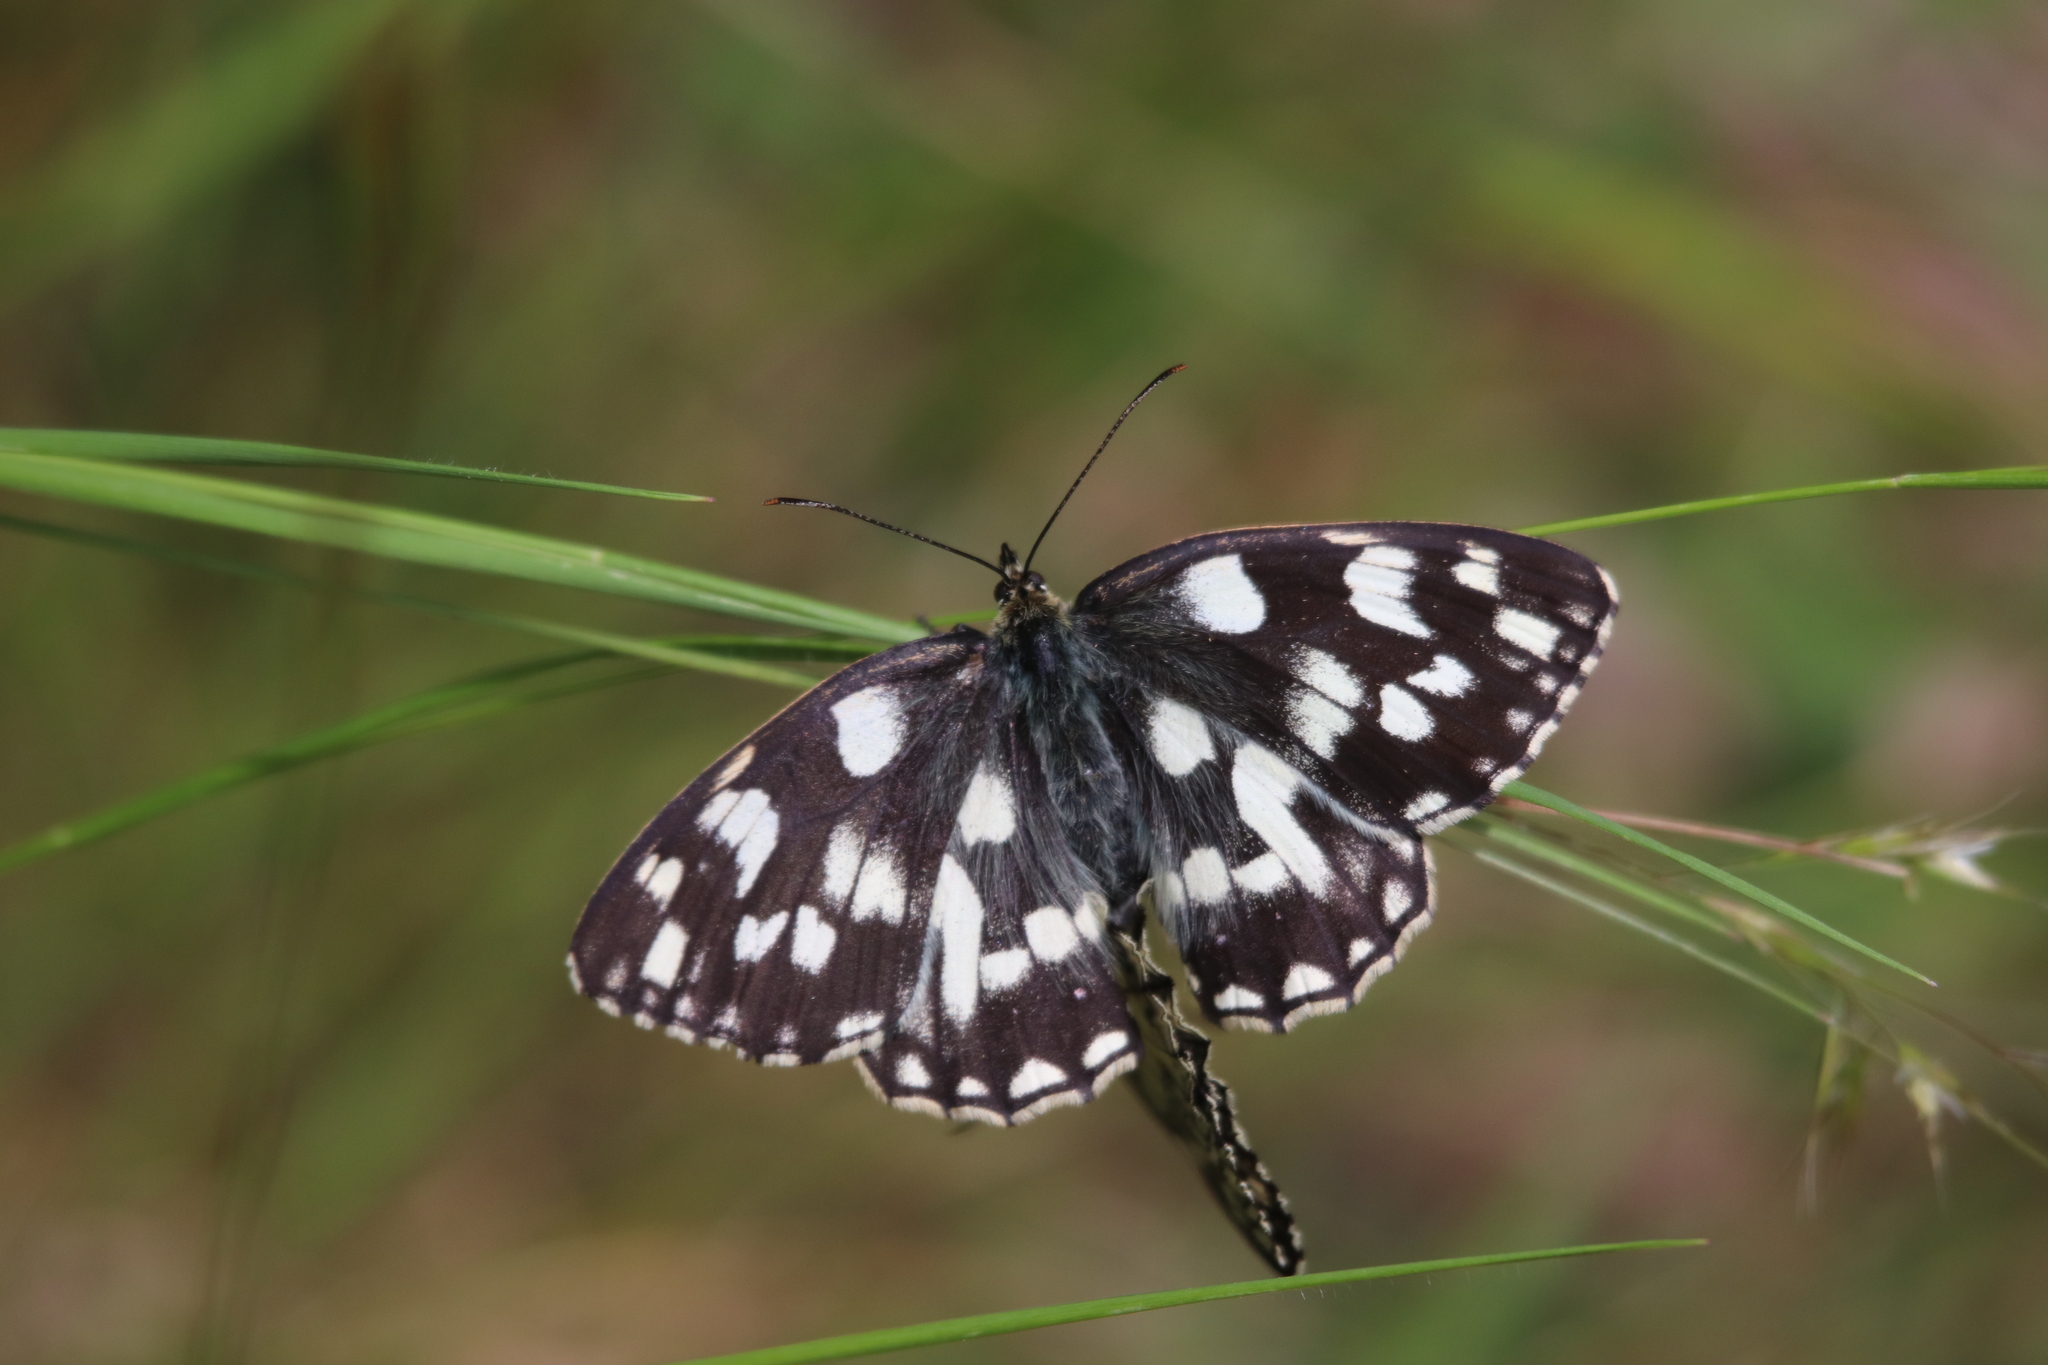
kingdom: Animalia
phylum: Arthropoda
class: Insecta
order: Lepidoptera
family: Nymphalidae
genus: Melanargia
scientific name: Melanargia galathea
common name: Marbled white
